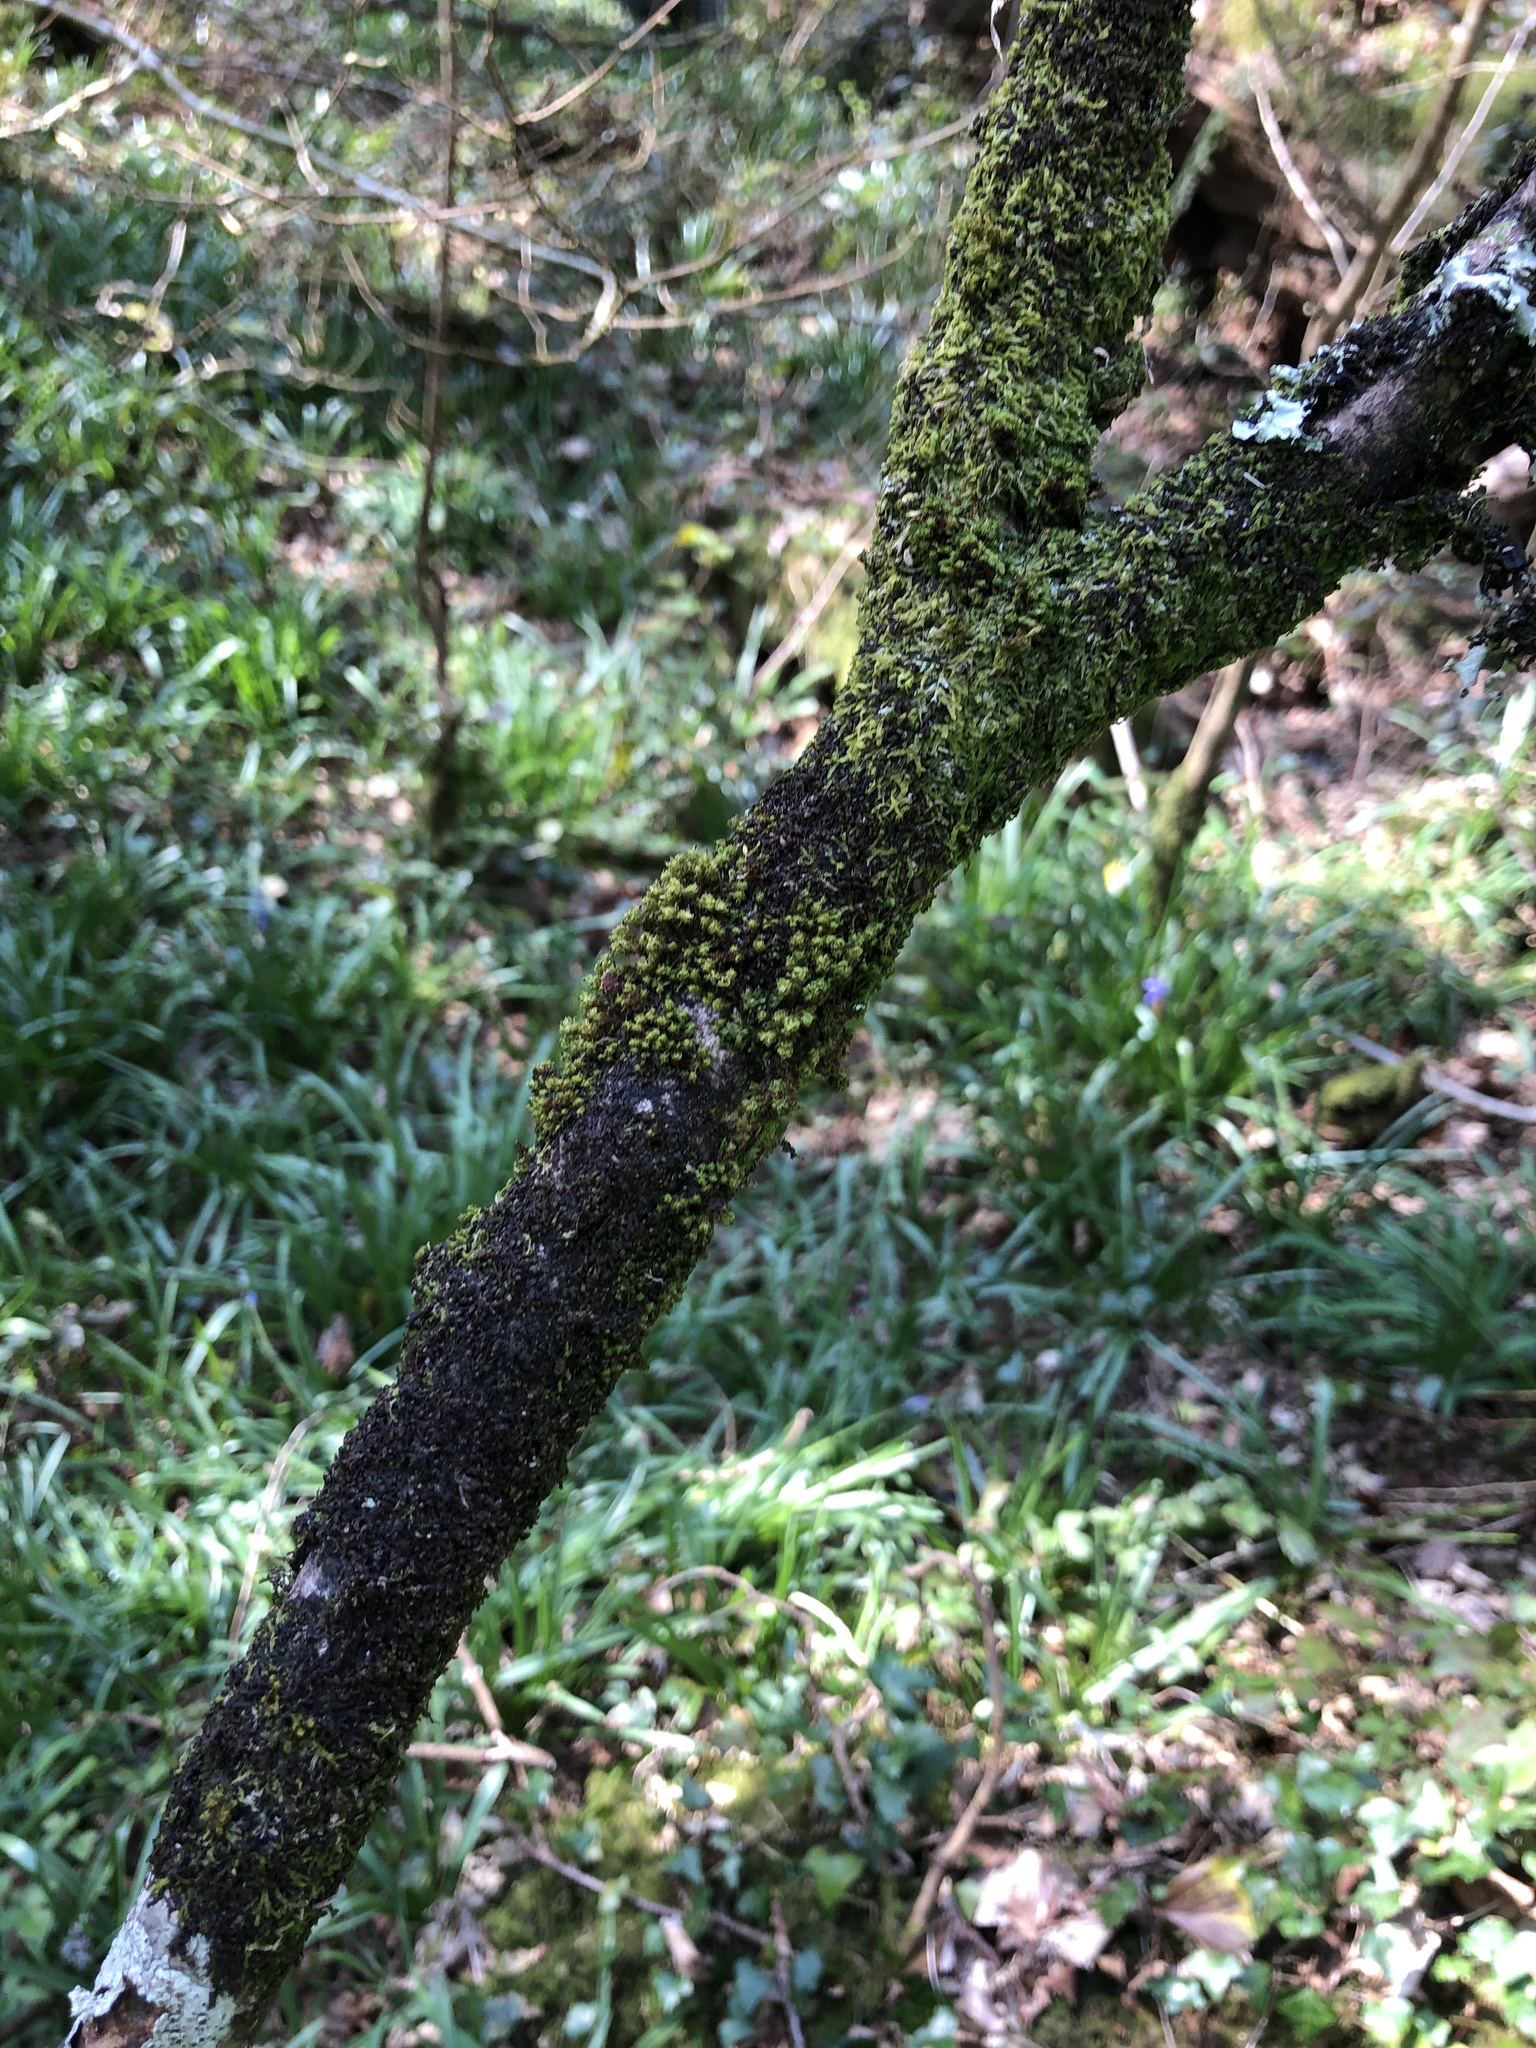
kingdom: Plantae
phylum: Bryophyta
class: Bryopsida
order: Orthotrichales
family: Orthotrichaceae
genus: Plenogemma
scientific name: Plenogemma phyllantha
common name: Frizzled pincushion
